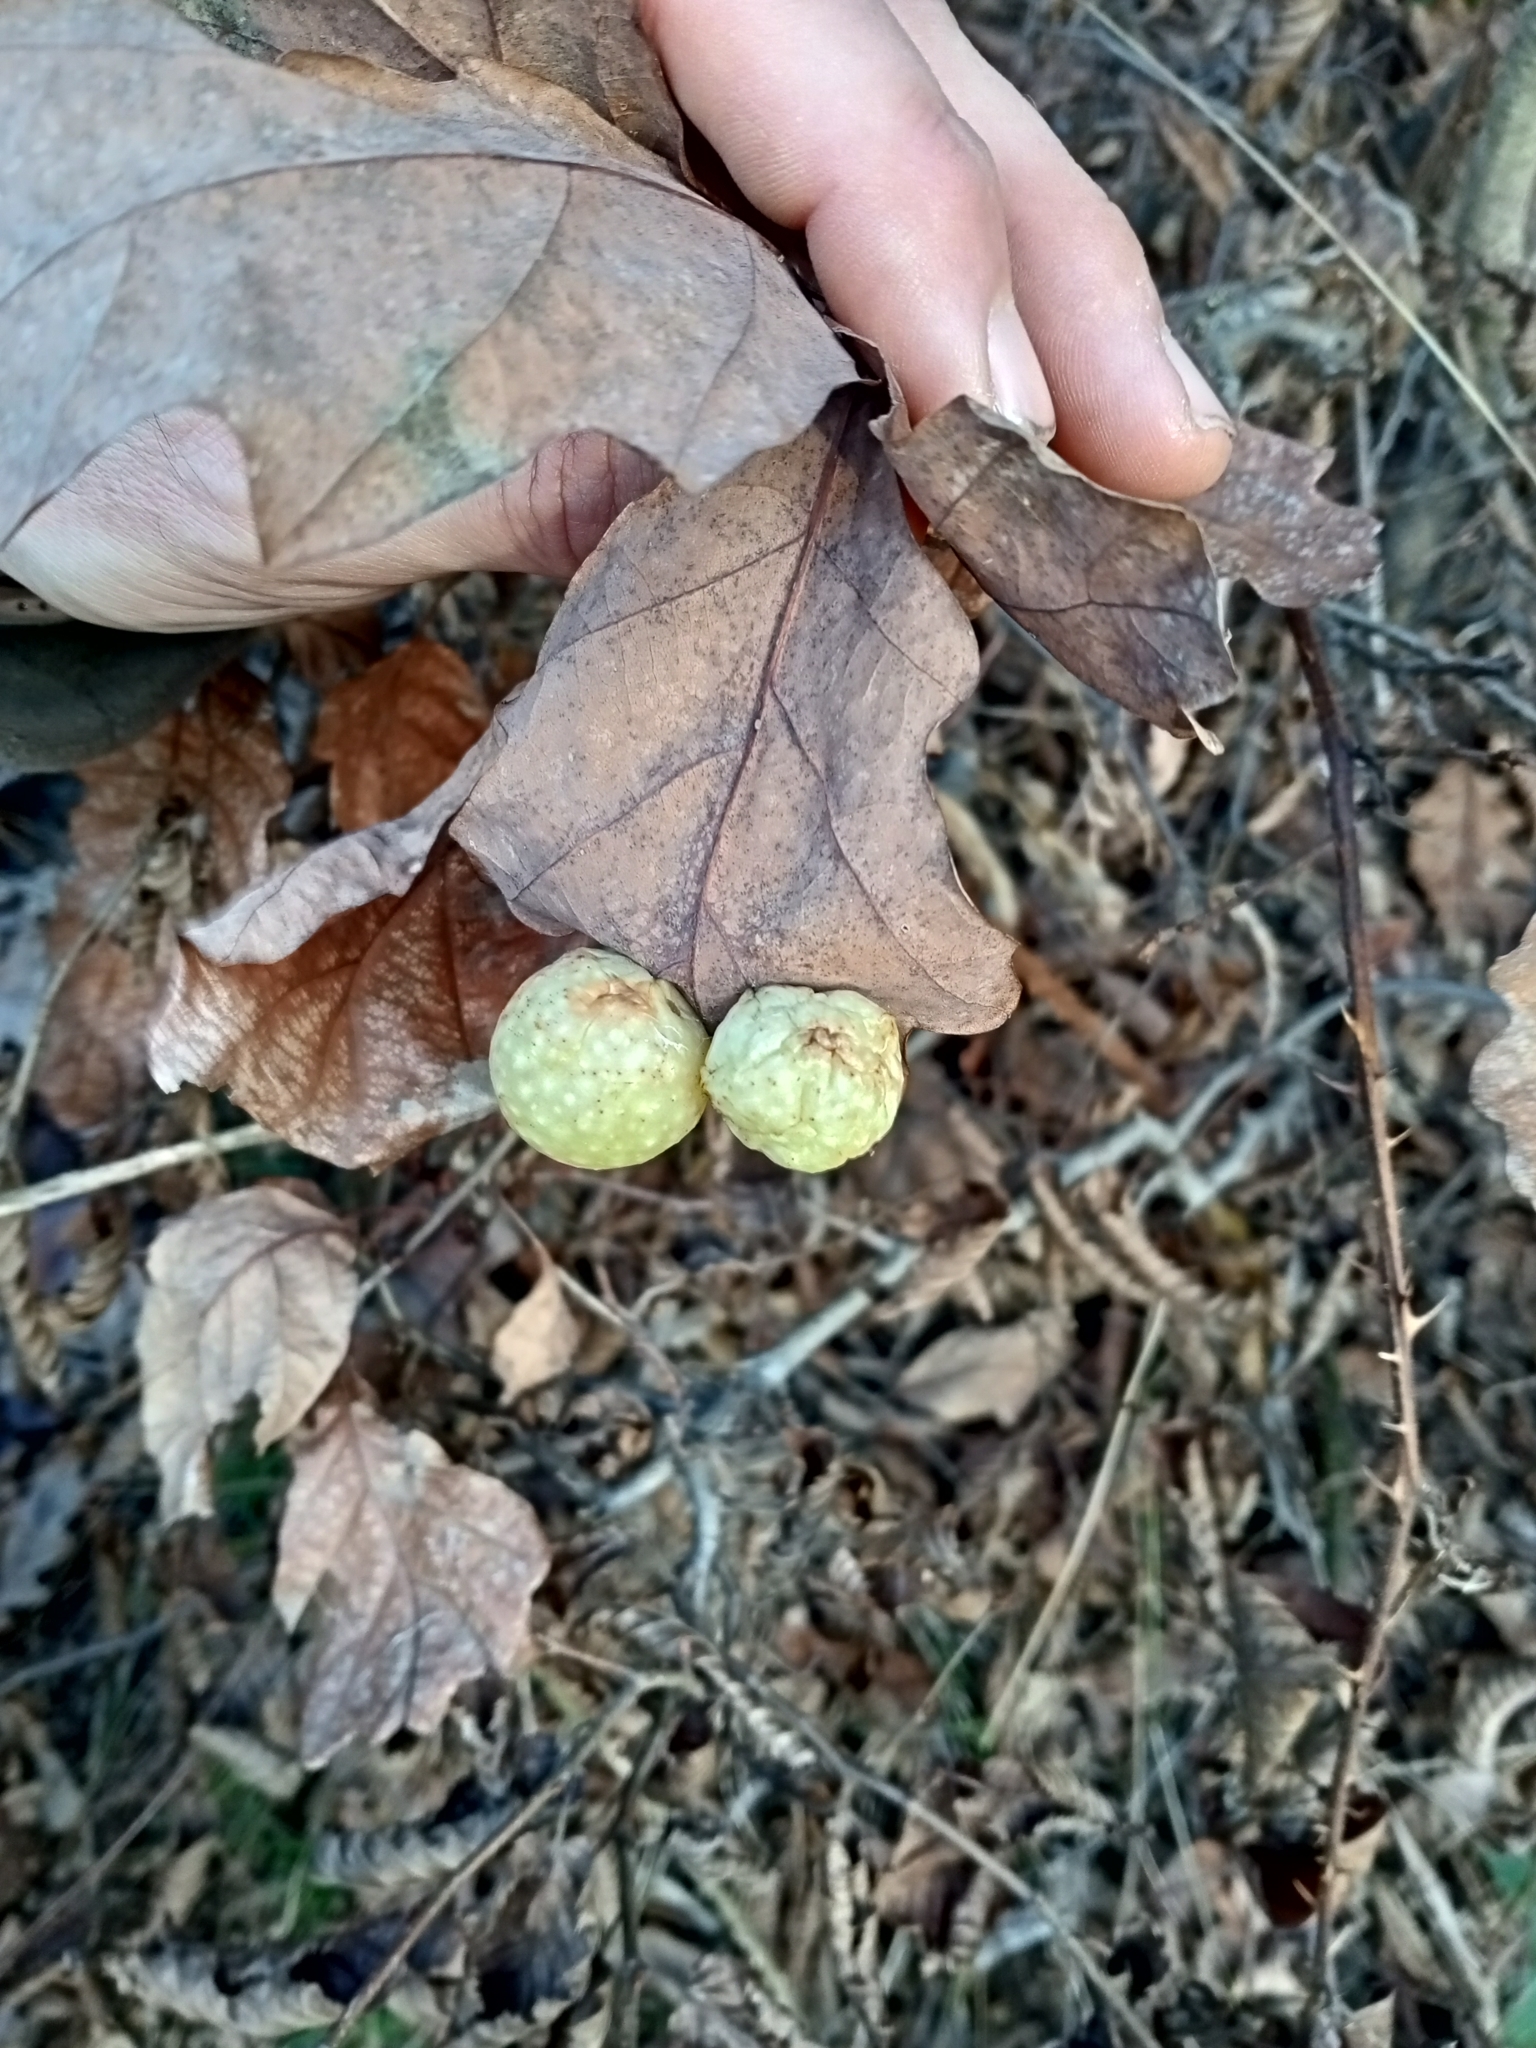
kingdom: Animalia
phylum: Arthropoda
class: Insecta
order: Hymenoptera
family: Cynipidae
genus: Cynips
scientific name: Cynips quercusfolii
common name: Cherry gall
